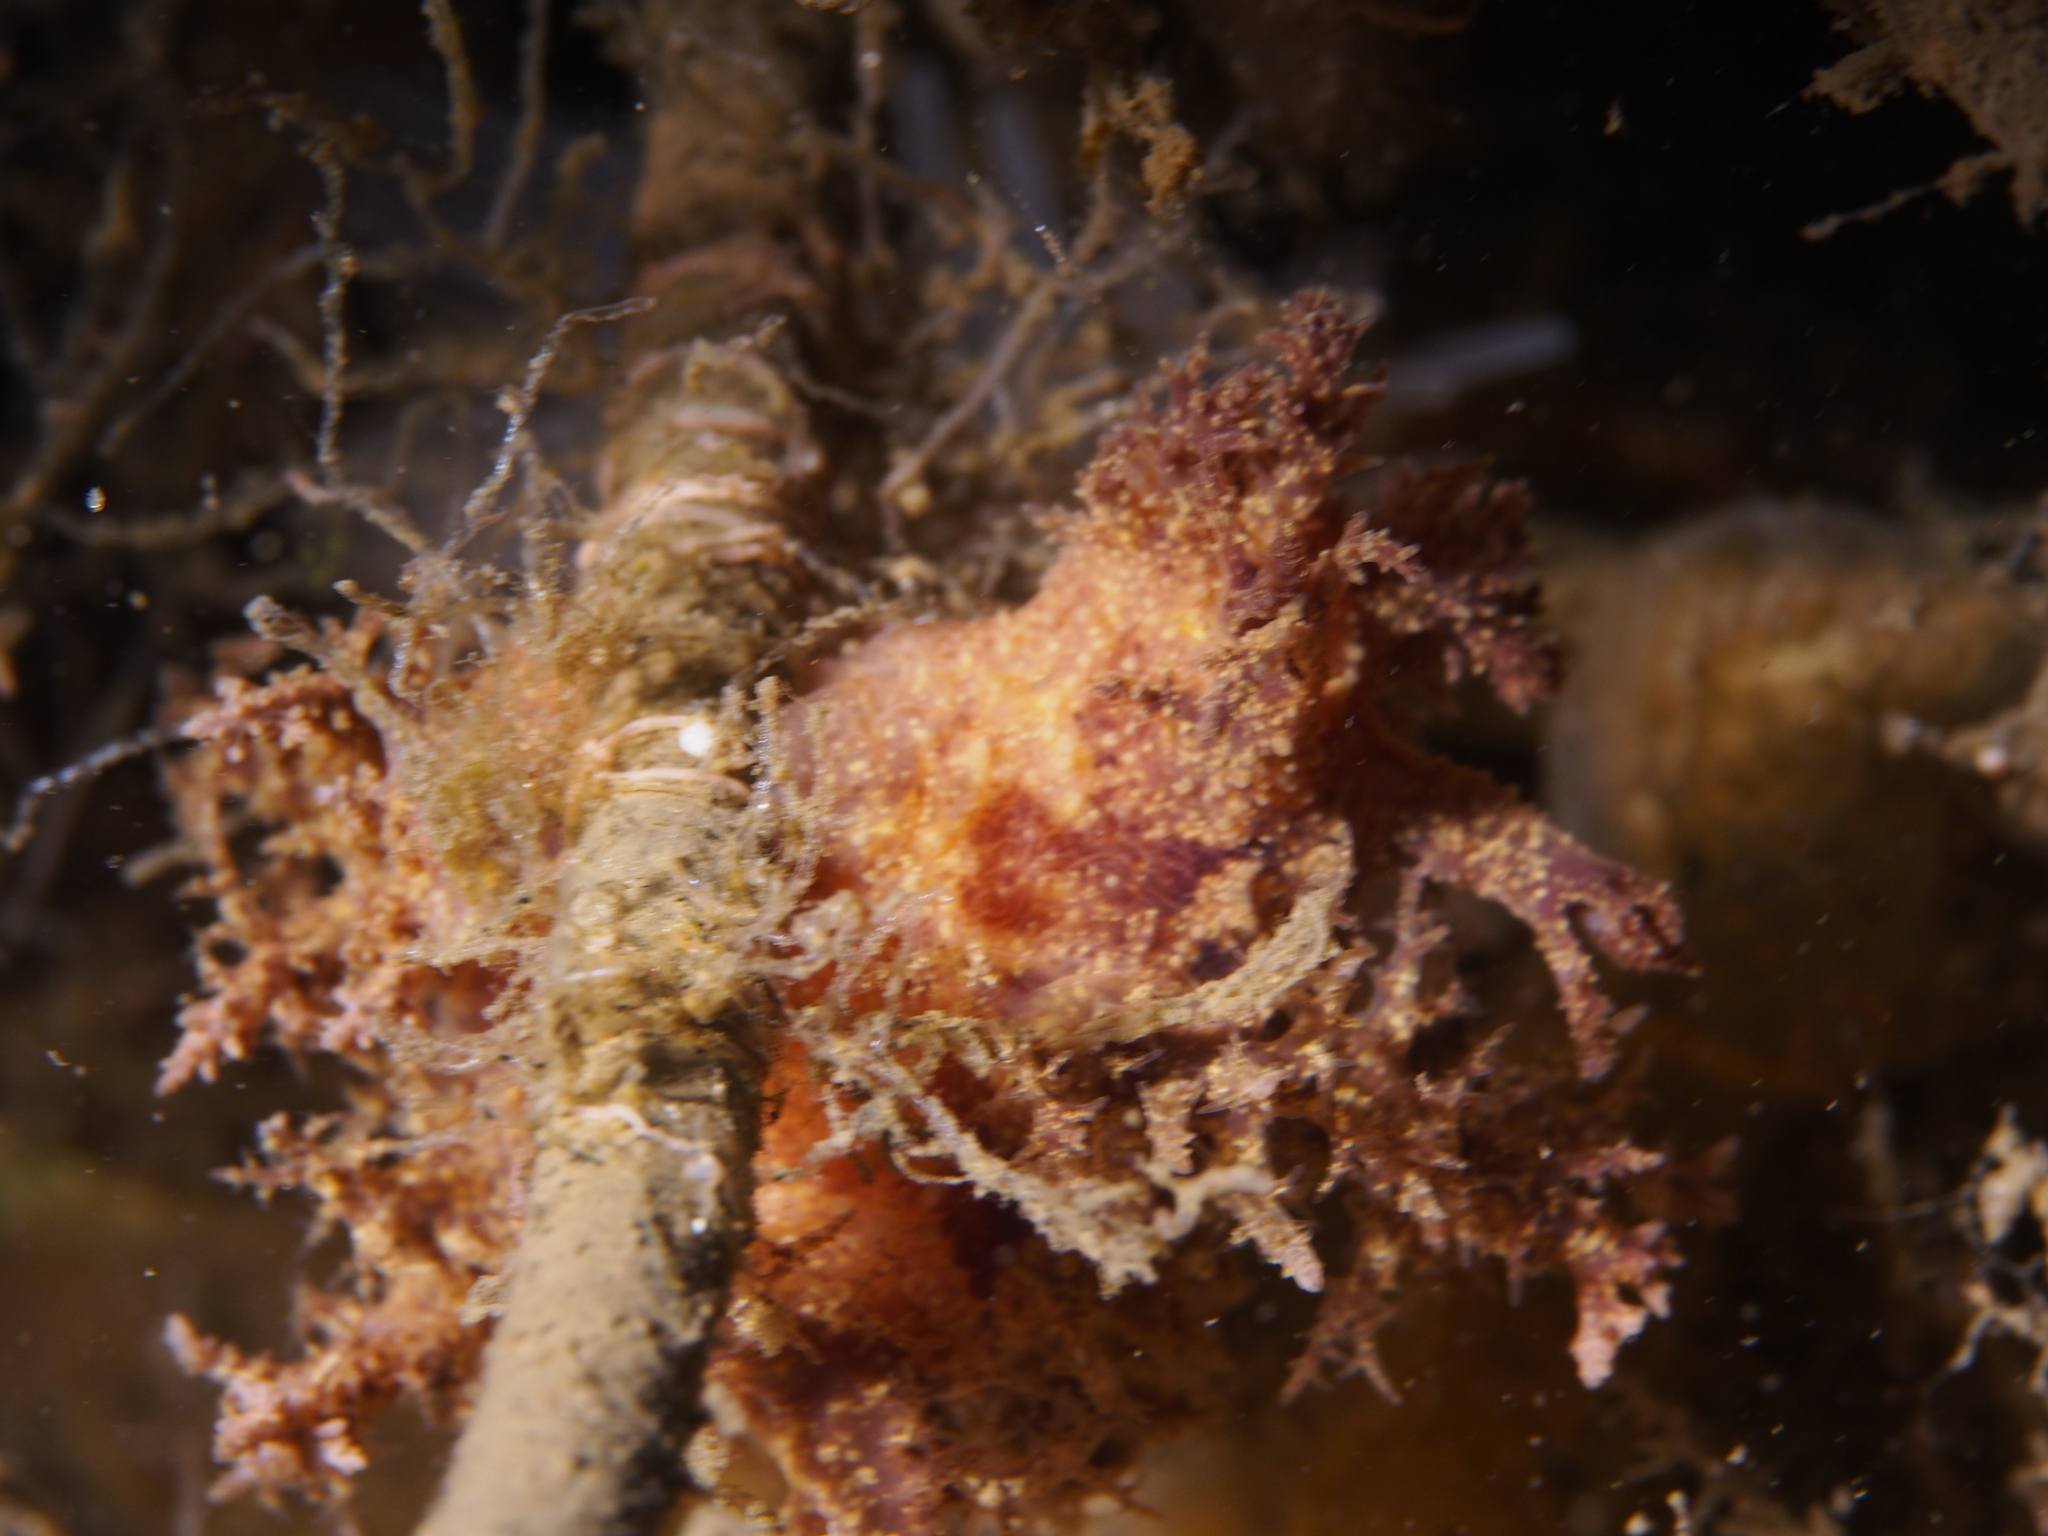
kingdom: Animalia
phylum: Mollusca
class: Gastropoda
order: Nudibranchia
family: Dendronotidae
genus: Dendronotus
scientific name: Dendronotus europaeus
